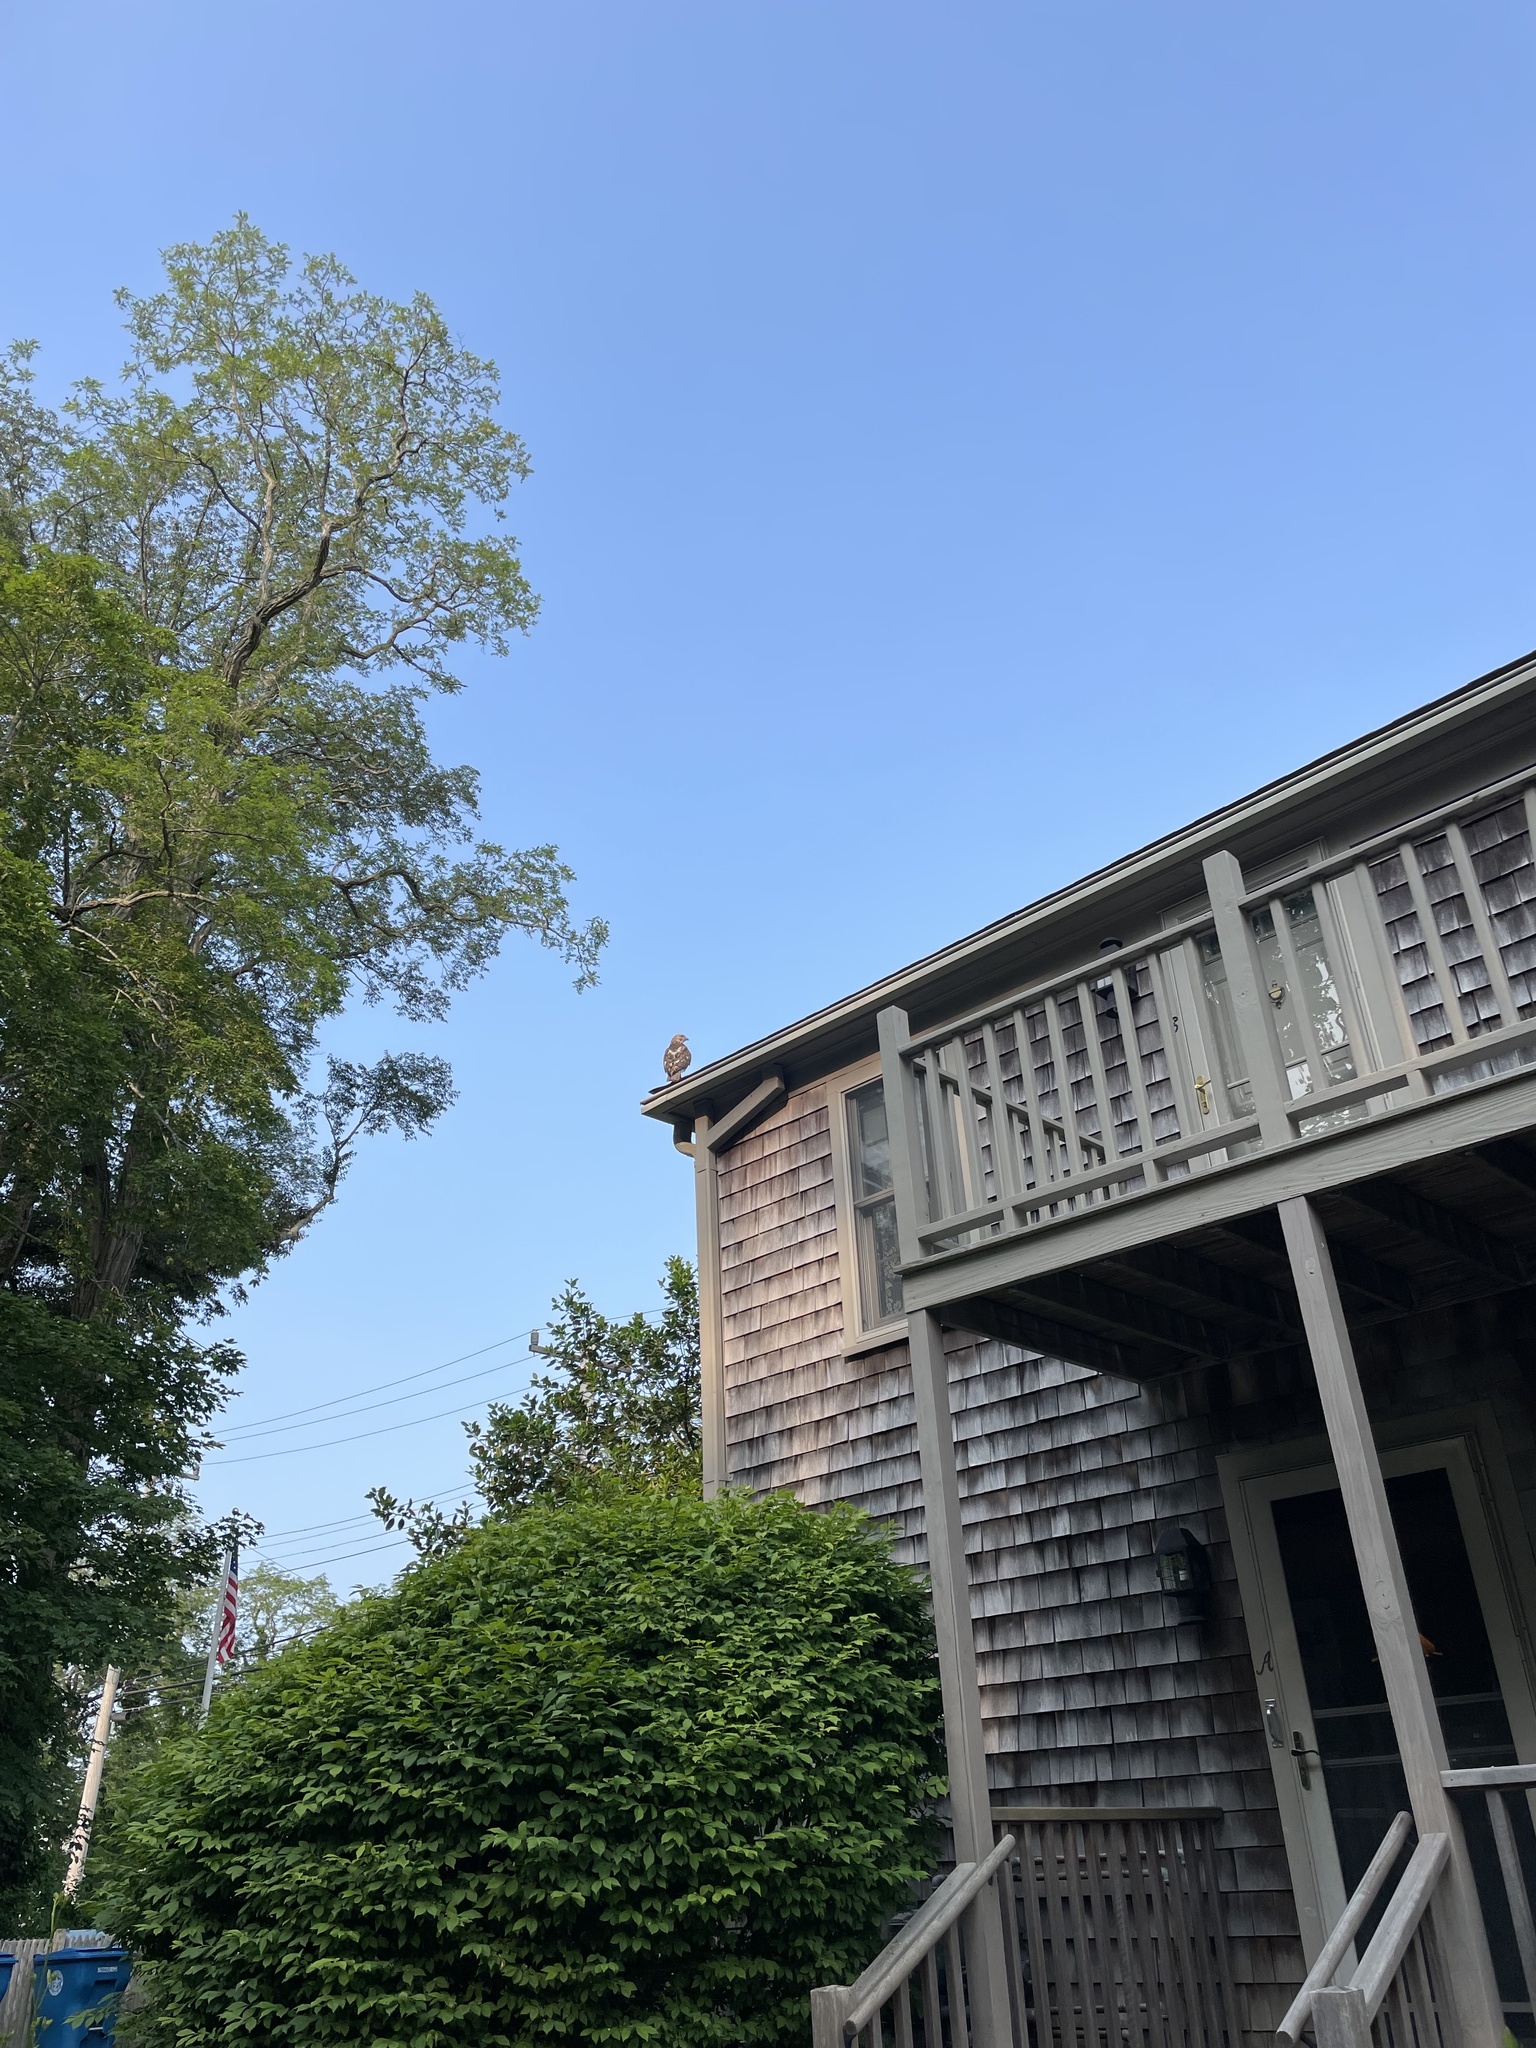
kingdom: Animalia
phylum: Chordata
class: Aves
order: Accipitriformes
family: Accipitridae
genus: Buteo
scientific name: Buteo jamaicensis
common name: Red-tailed hawk
